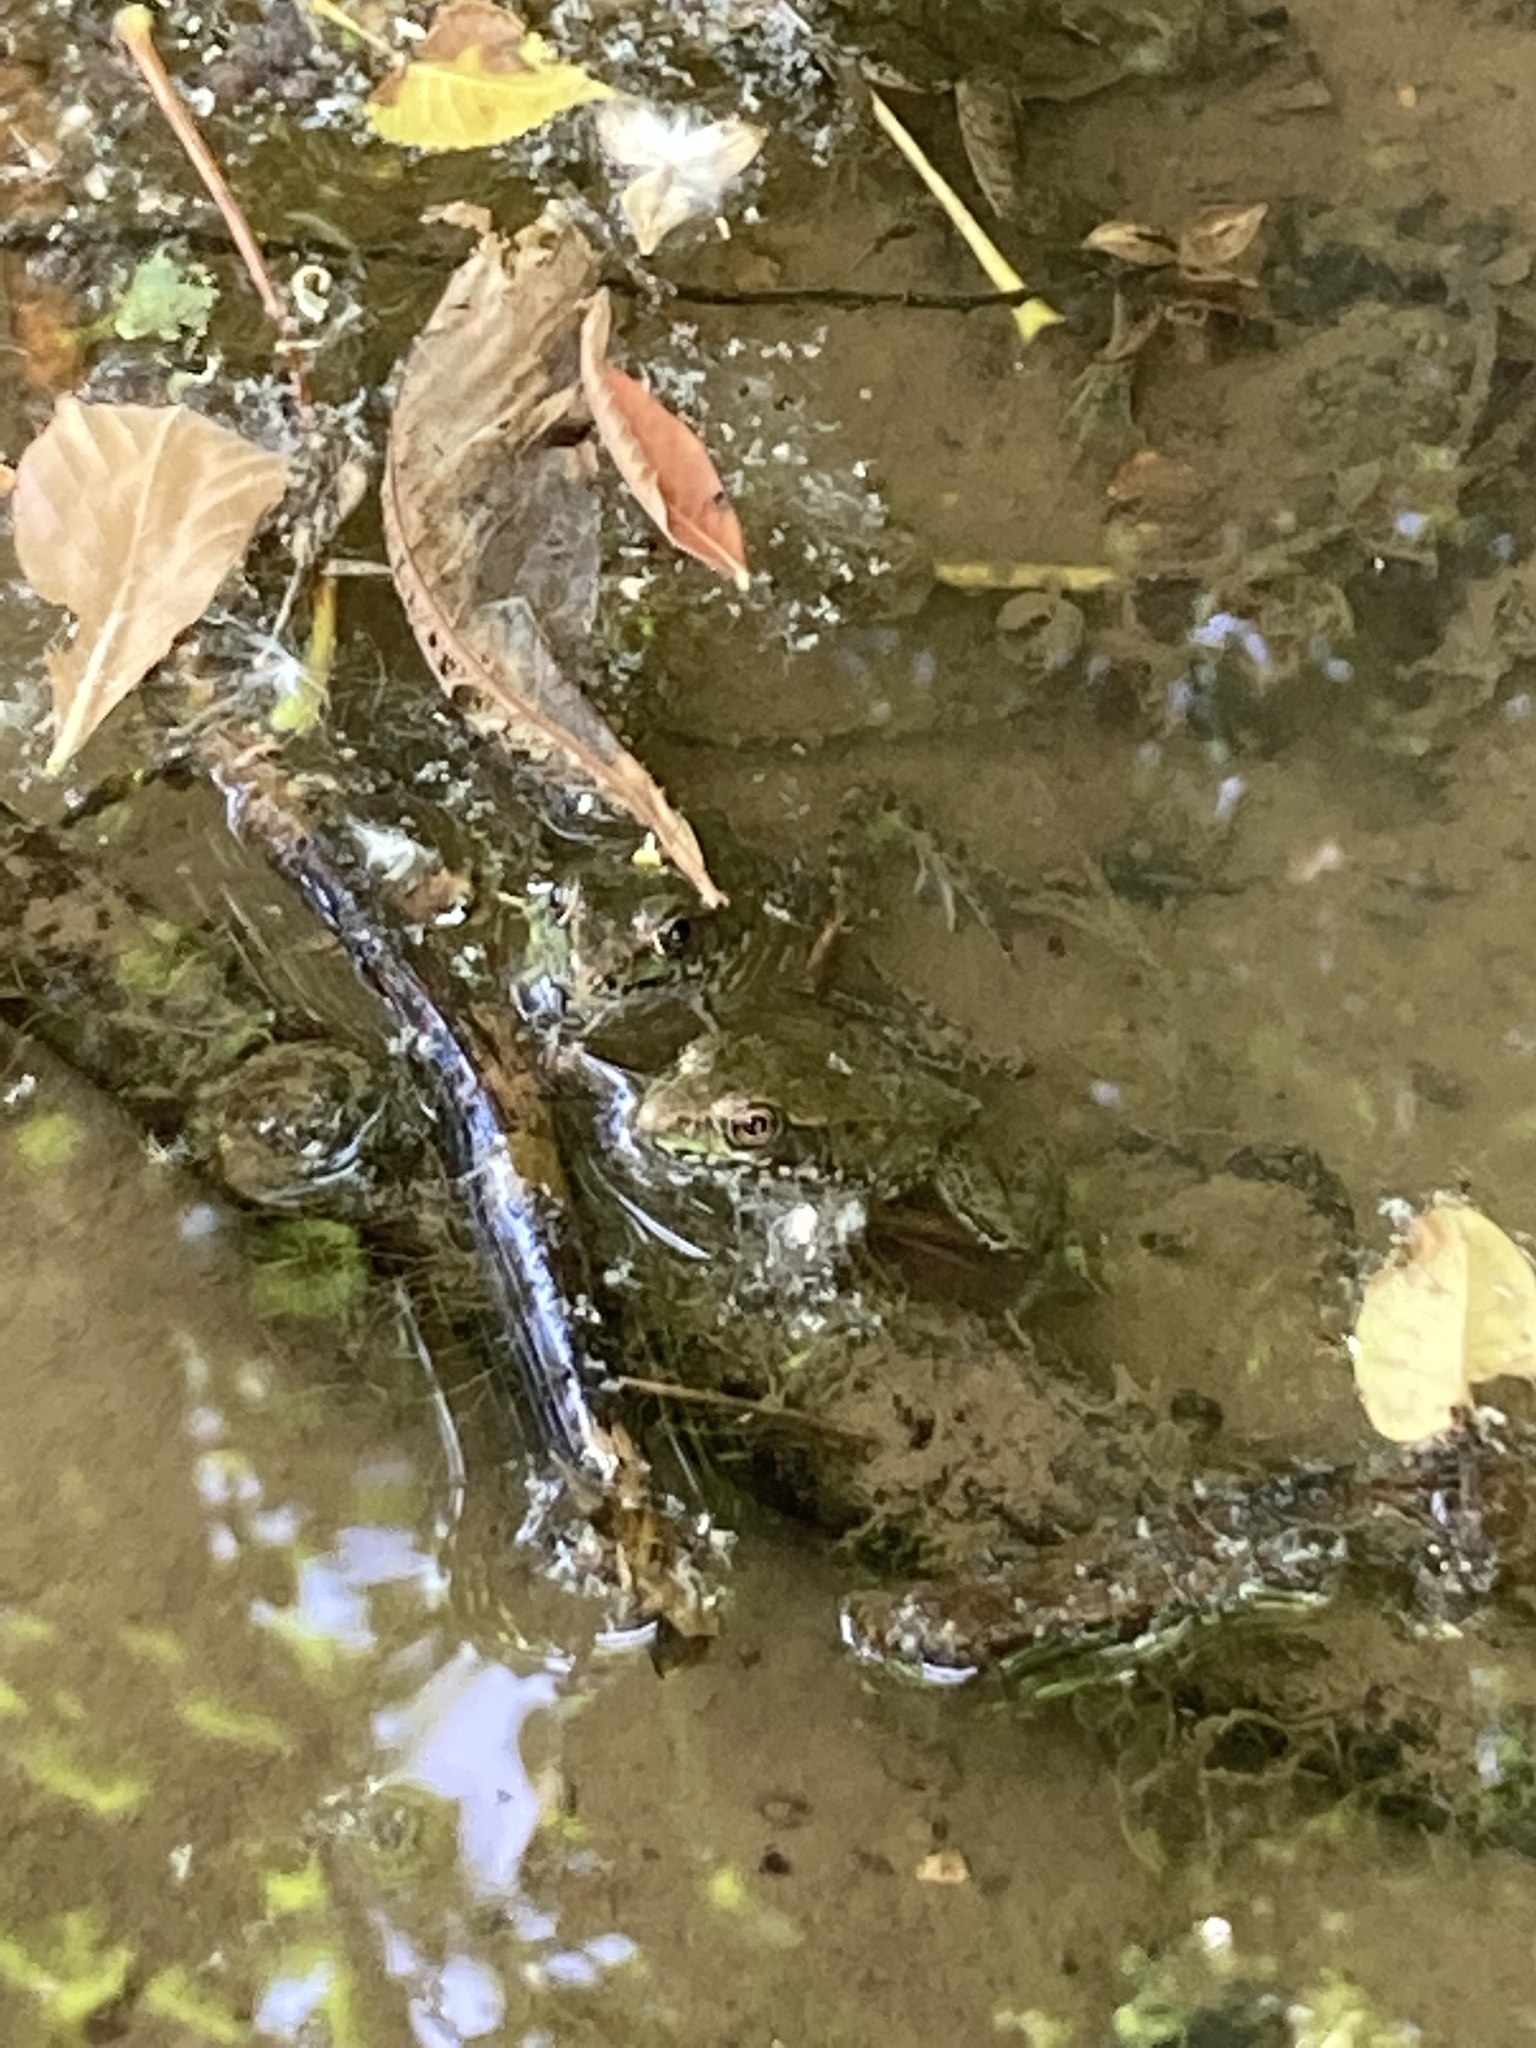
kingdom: Animalia
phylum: Chordata
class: Amphibia
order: Anura
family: Ranidae
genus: Lithobates
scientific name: Lithobates clamitans
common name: Green frog
